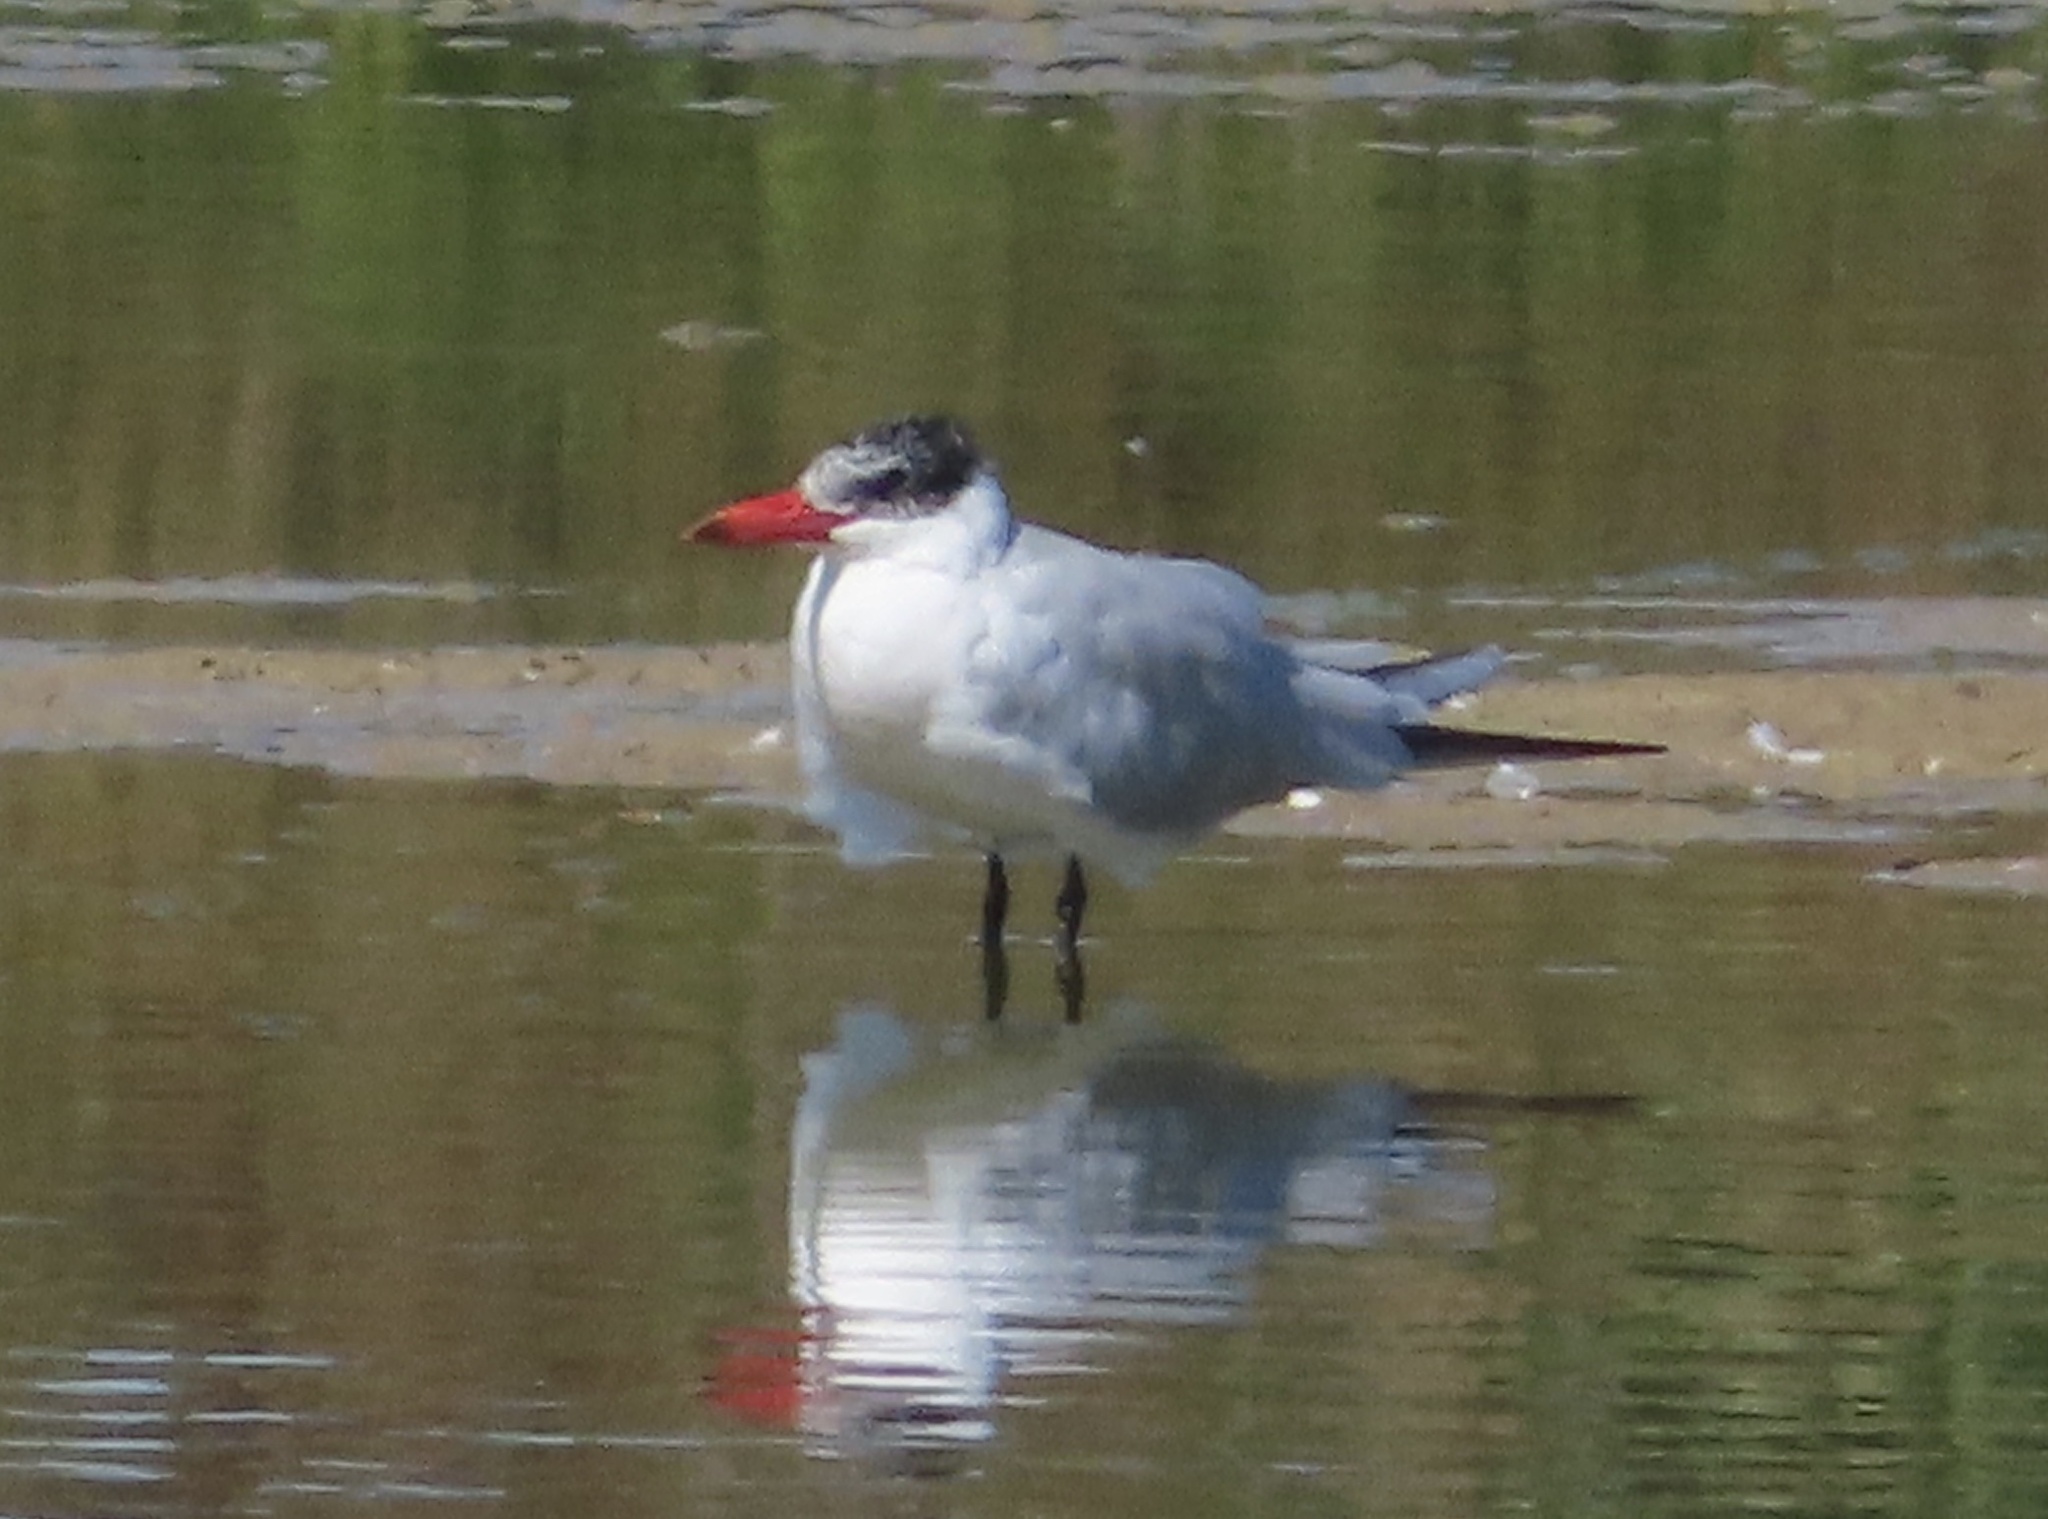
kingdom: Animalia
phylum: Chordata
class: Aves
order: Charadriiformes
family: Laridae
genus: Hydroprogne
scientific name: Hydroprogne caspia
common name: Caspian tern
